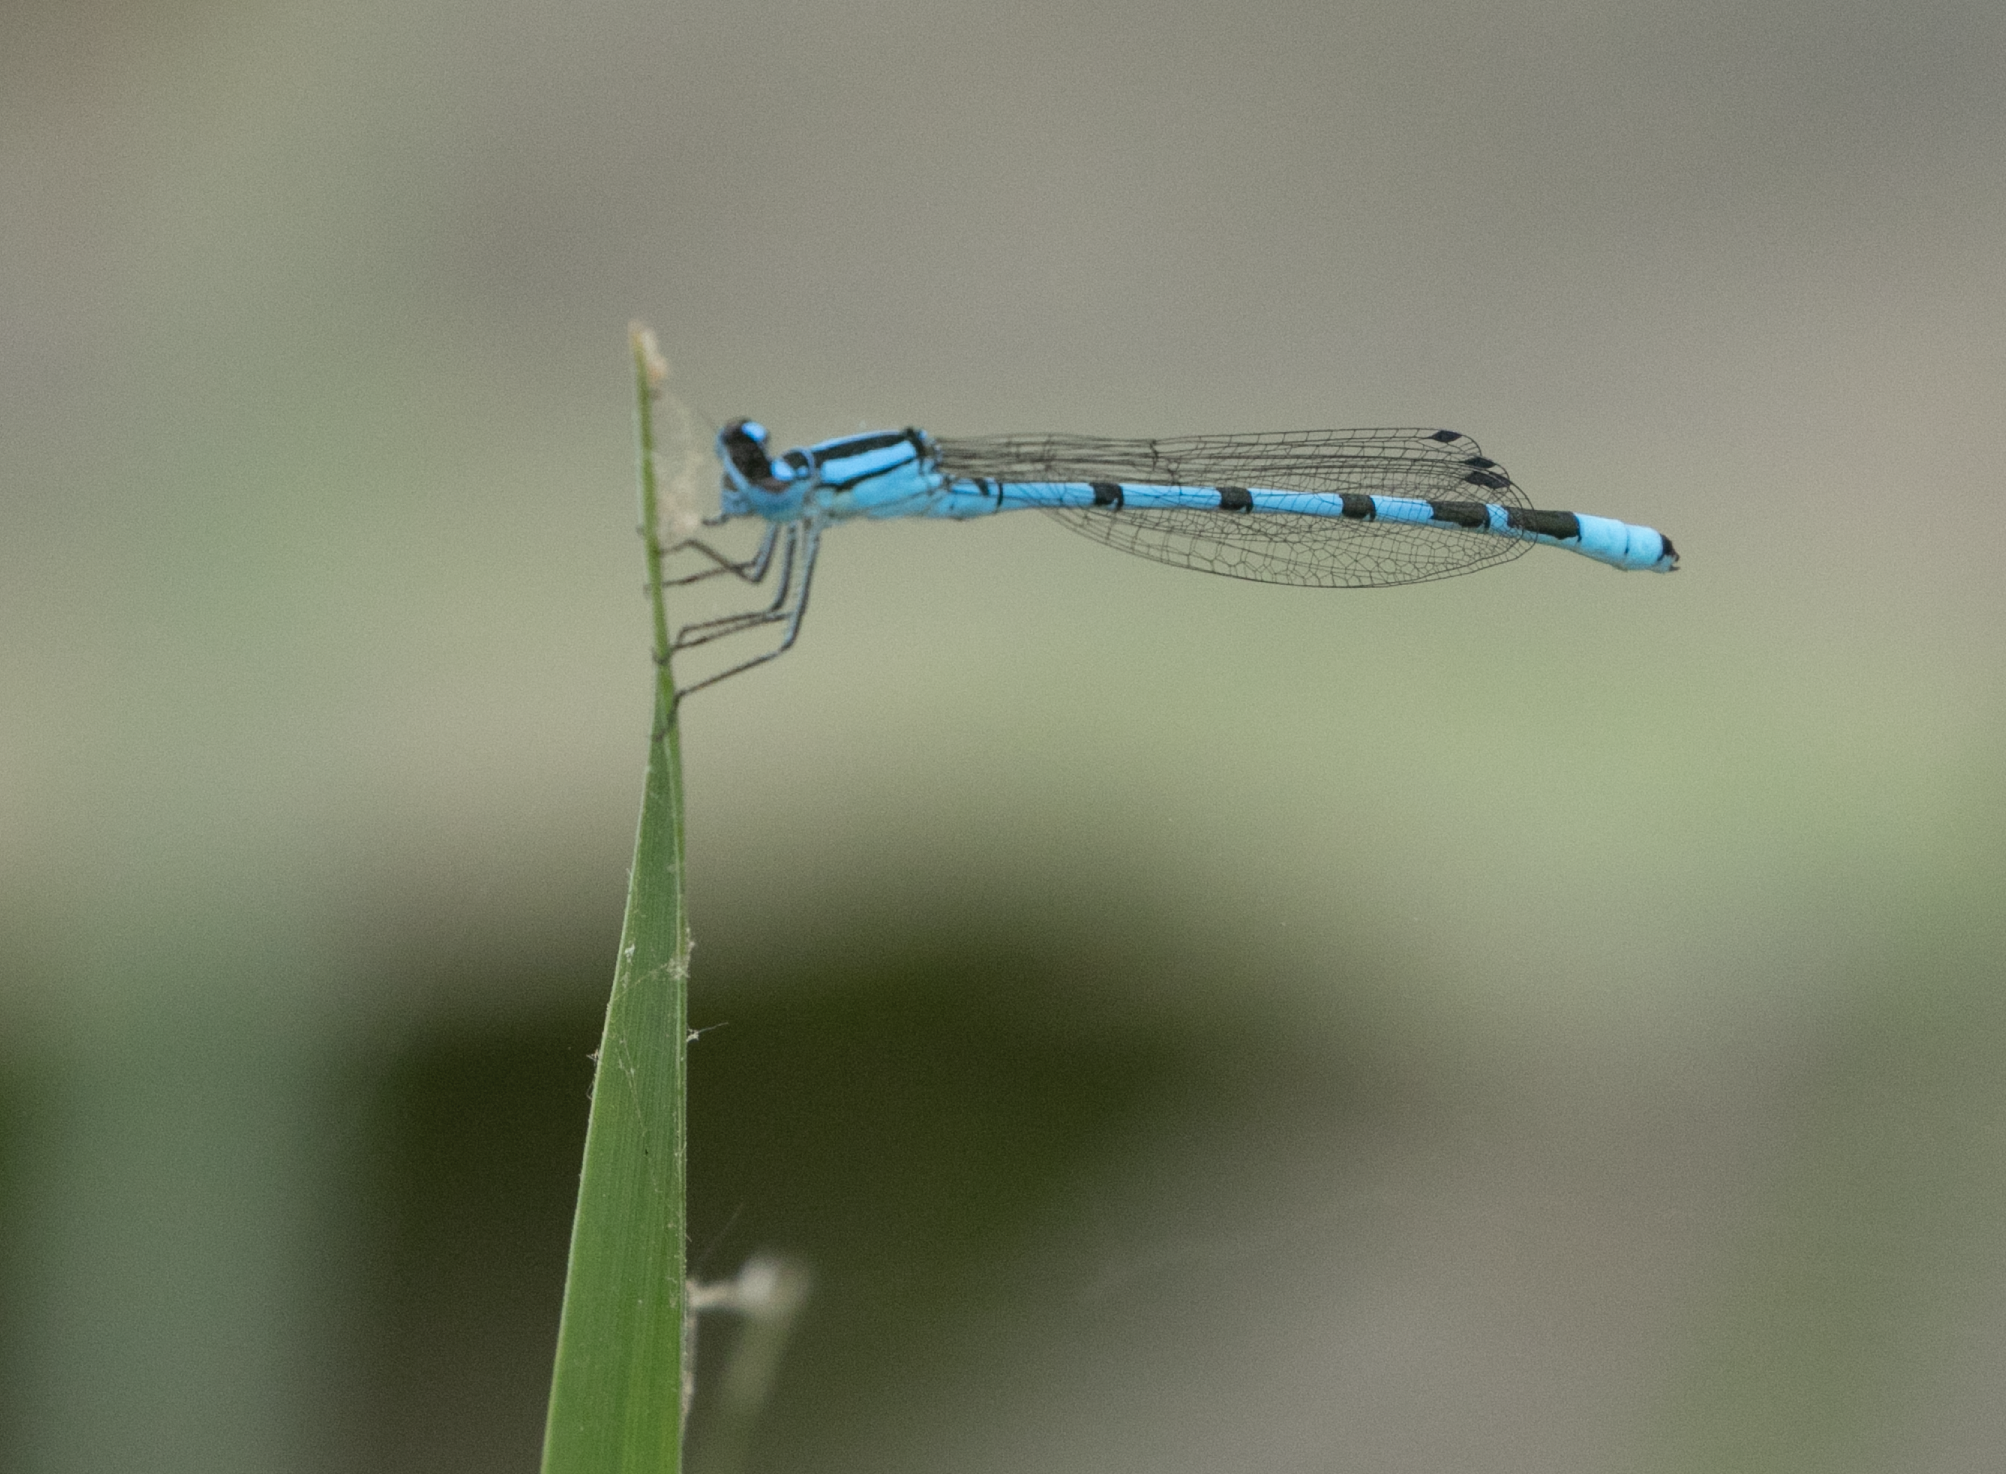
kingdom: Animalia
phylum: Arthropoda
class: Insecta
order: Odonata
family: Coenagrionidae
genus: Enallagma
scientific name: Enallagma cyathigerum
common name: Common blue damselfly
